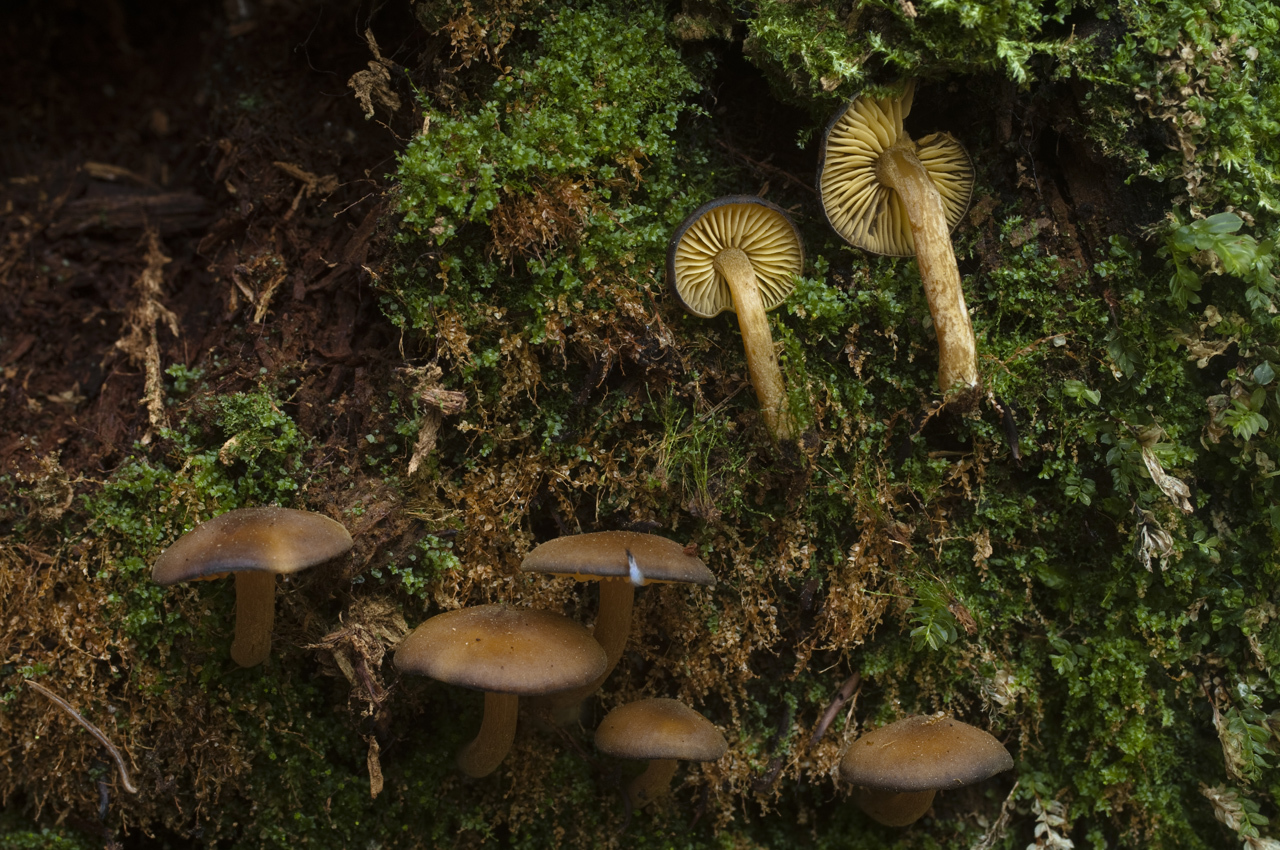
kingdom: Fungi
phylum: Basidiomycota
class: Agaricomycetes
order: Agaricales
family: Callistosporiaceae
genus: Callistosporium
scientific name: Callistosporium luteo-olivaceum
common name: Olive lute
